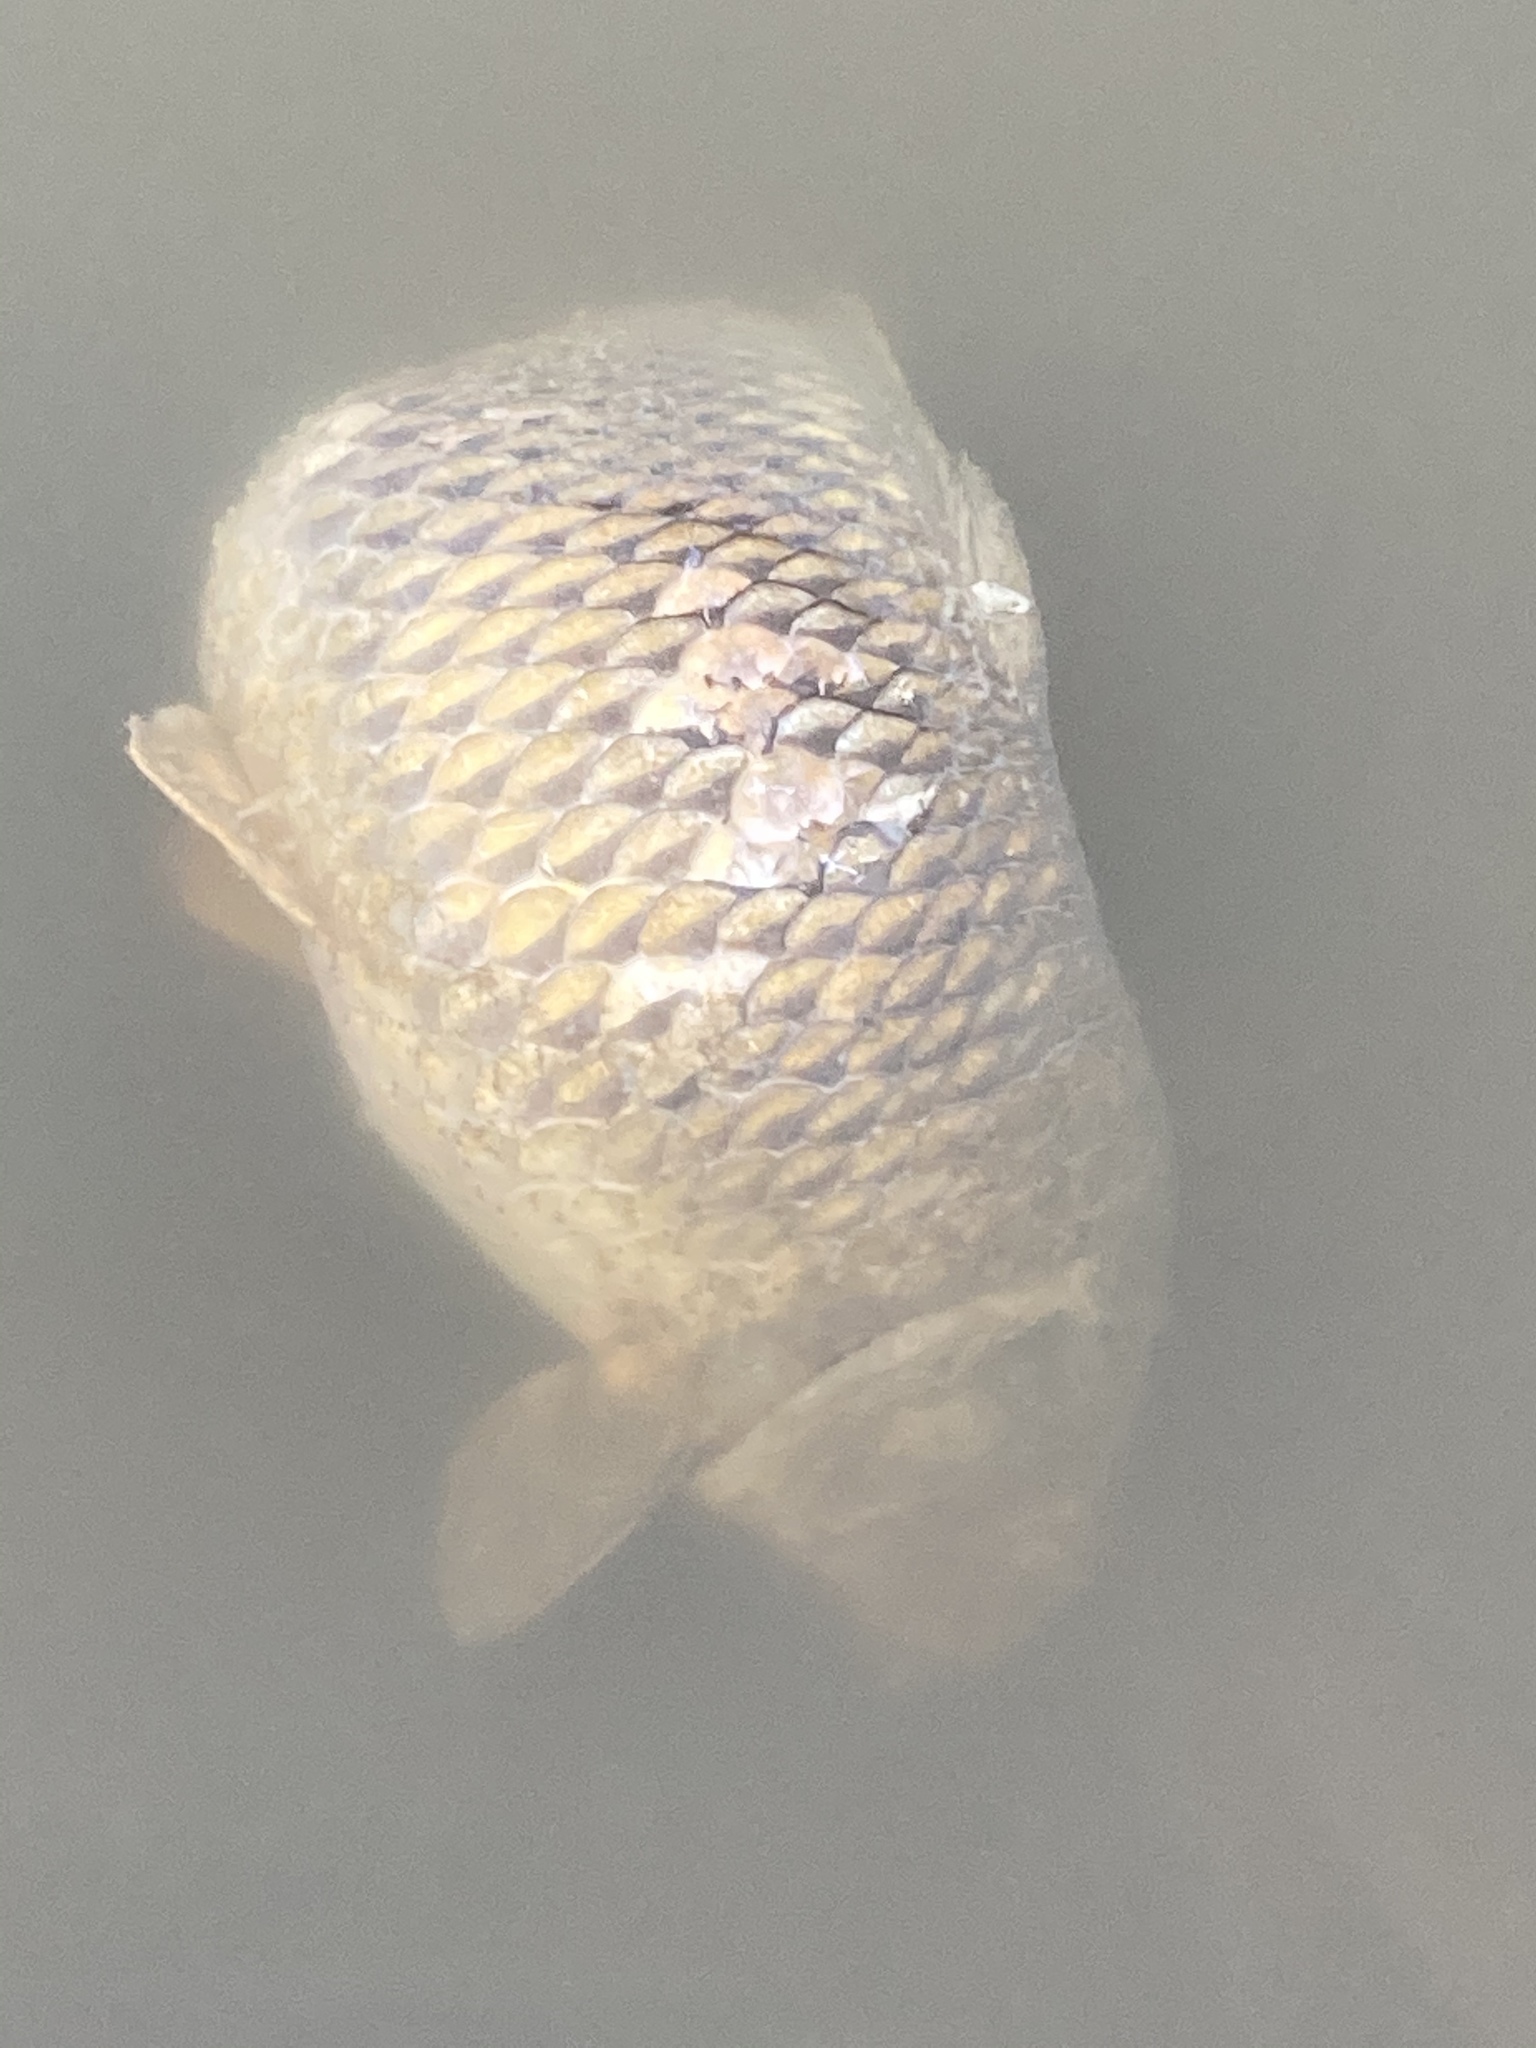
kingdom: Animalia
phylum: Chordata
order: Cypriniformes
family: Cyprinidae
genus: Cyprinus
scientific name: Cyprinus carpio
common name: Common carp
